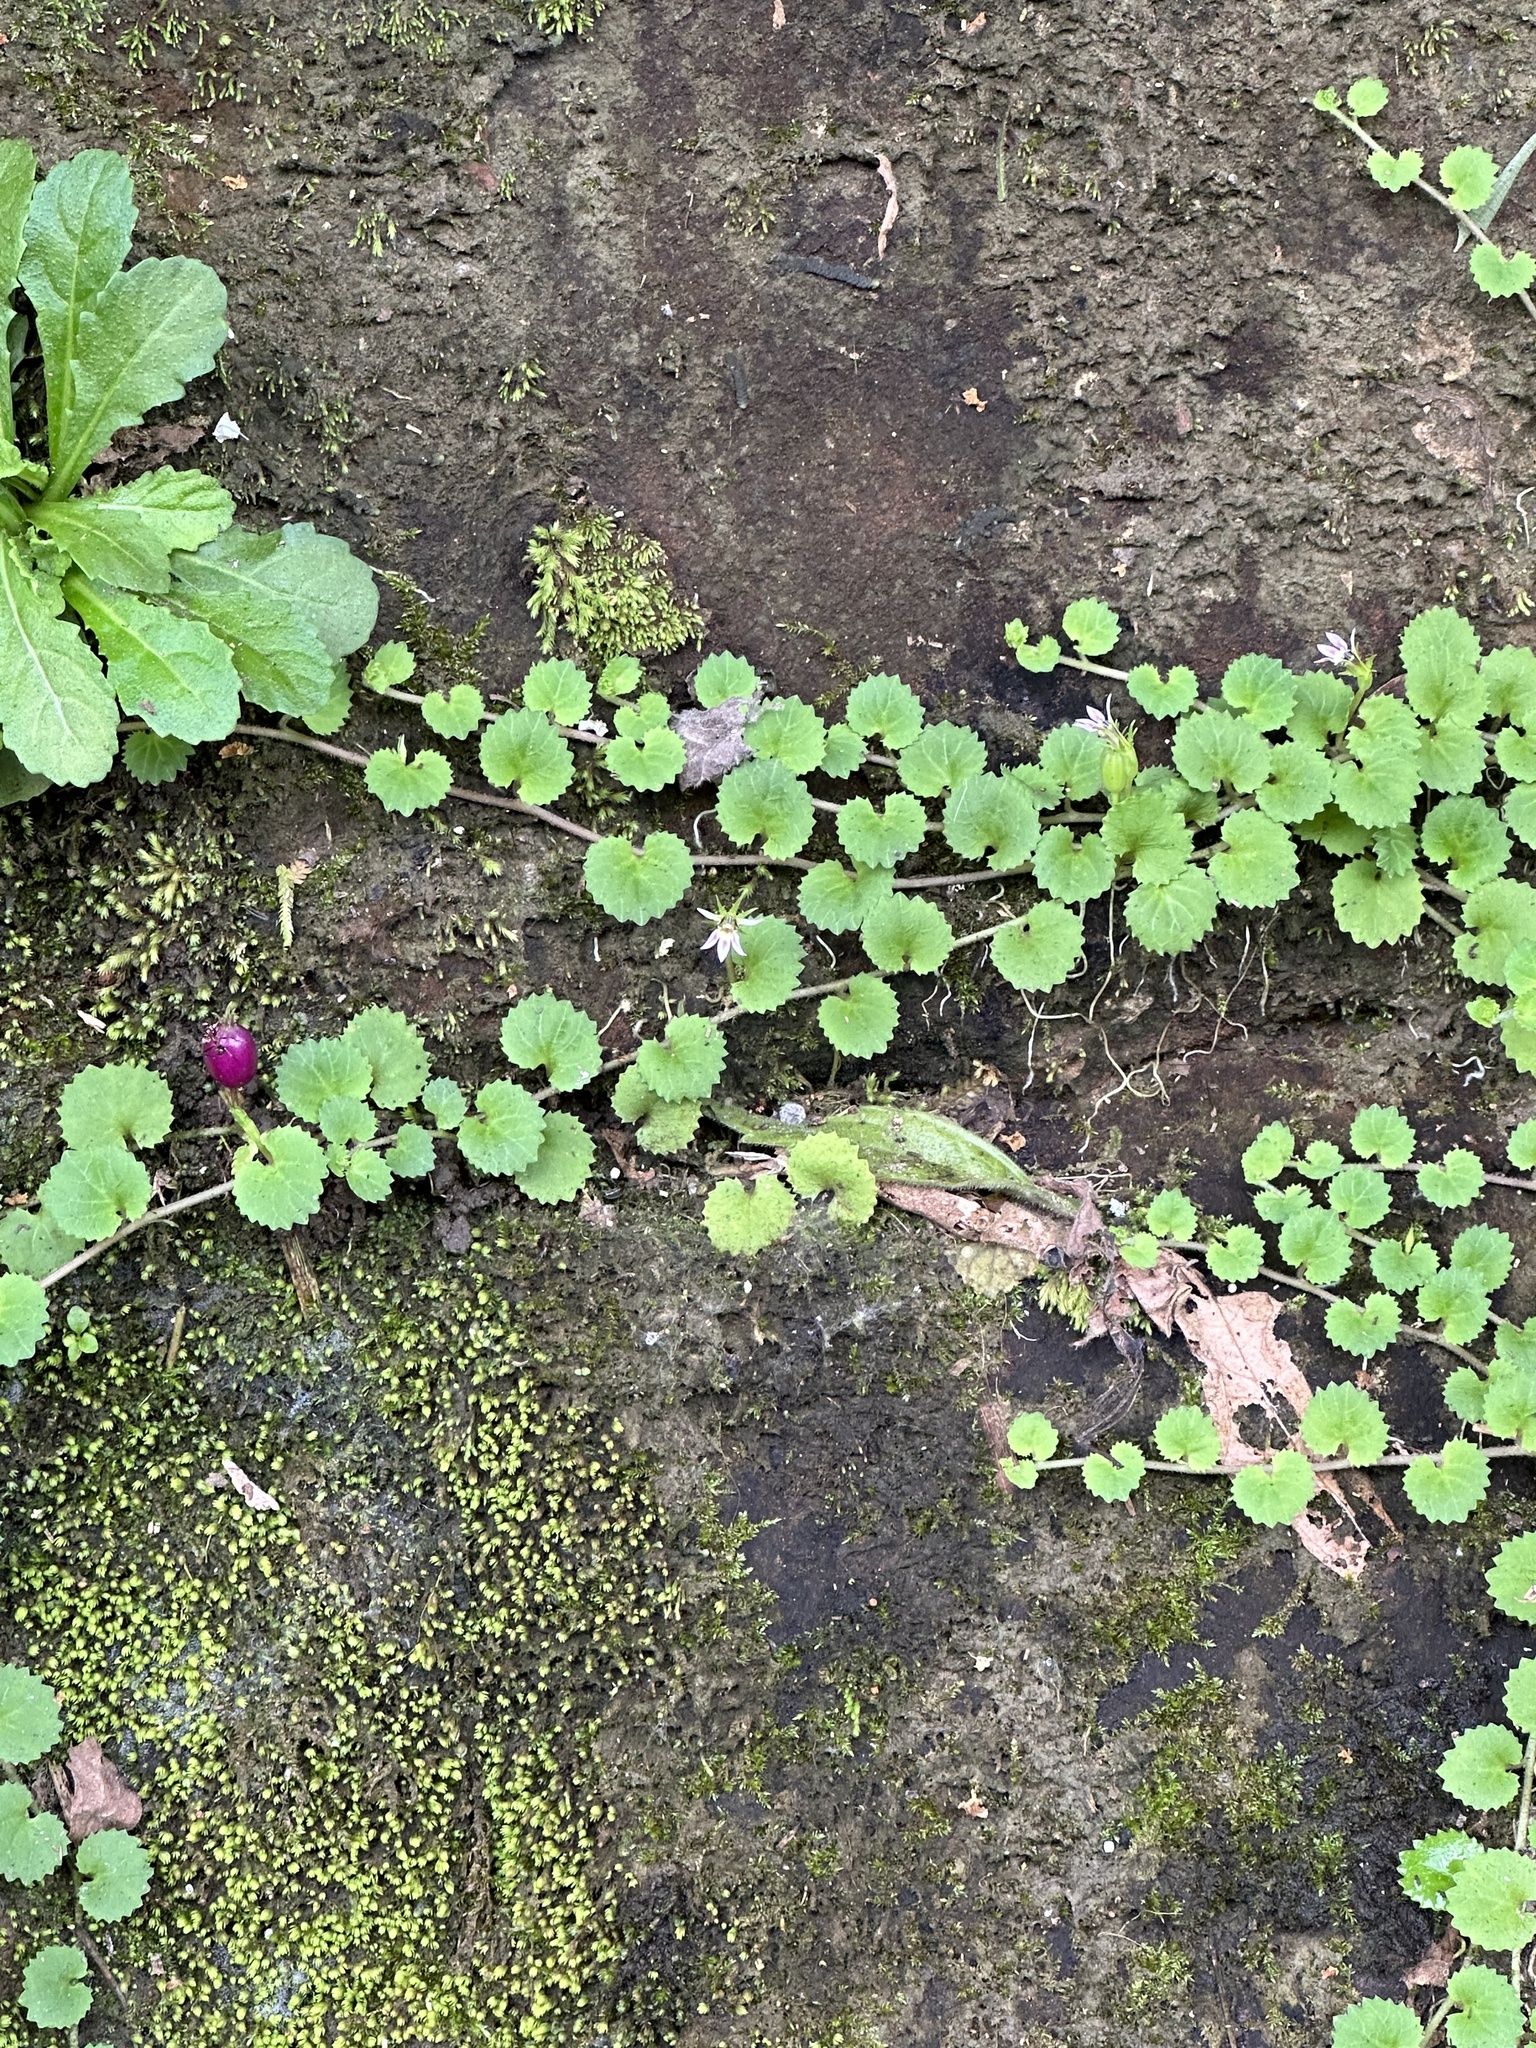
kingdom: Plantae
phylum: Tracheophyta
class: Magnoliopsida
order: Asterales
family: Campanulaceae
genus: Lobelia
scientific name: Lobelia nummularia
